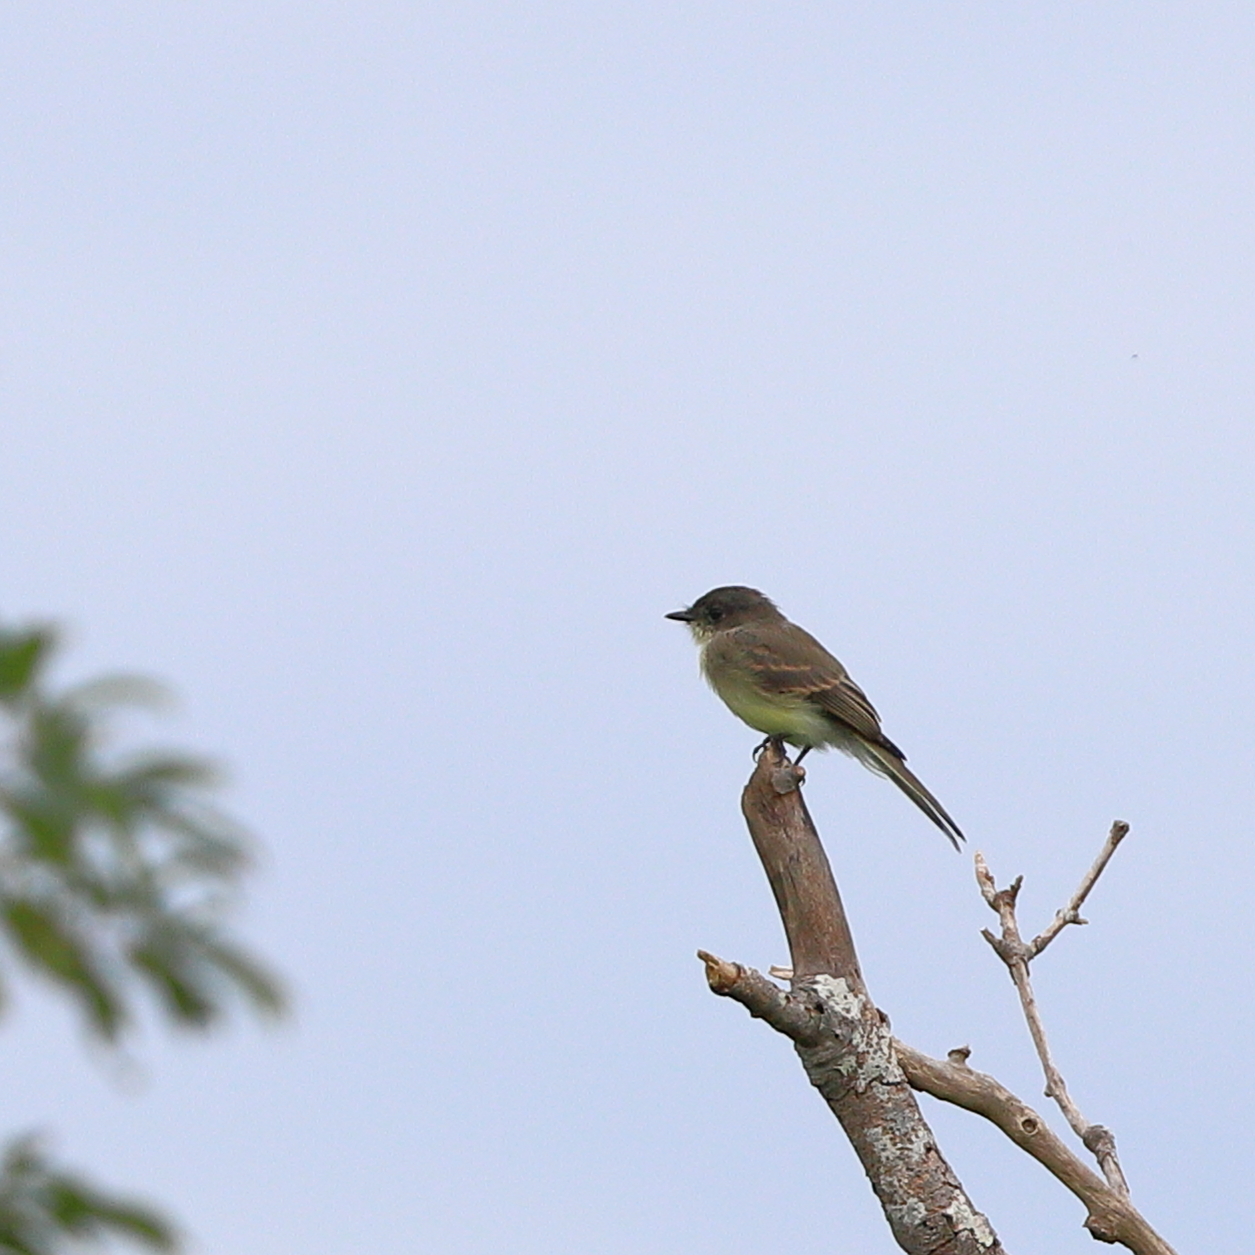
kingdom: Animalia
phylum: Chordata
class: Aves
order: Passeriformes
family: Tyrannidae
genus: Sayornis
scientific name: Sayornis phoebe
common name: Eastern phoebe
